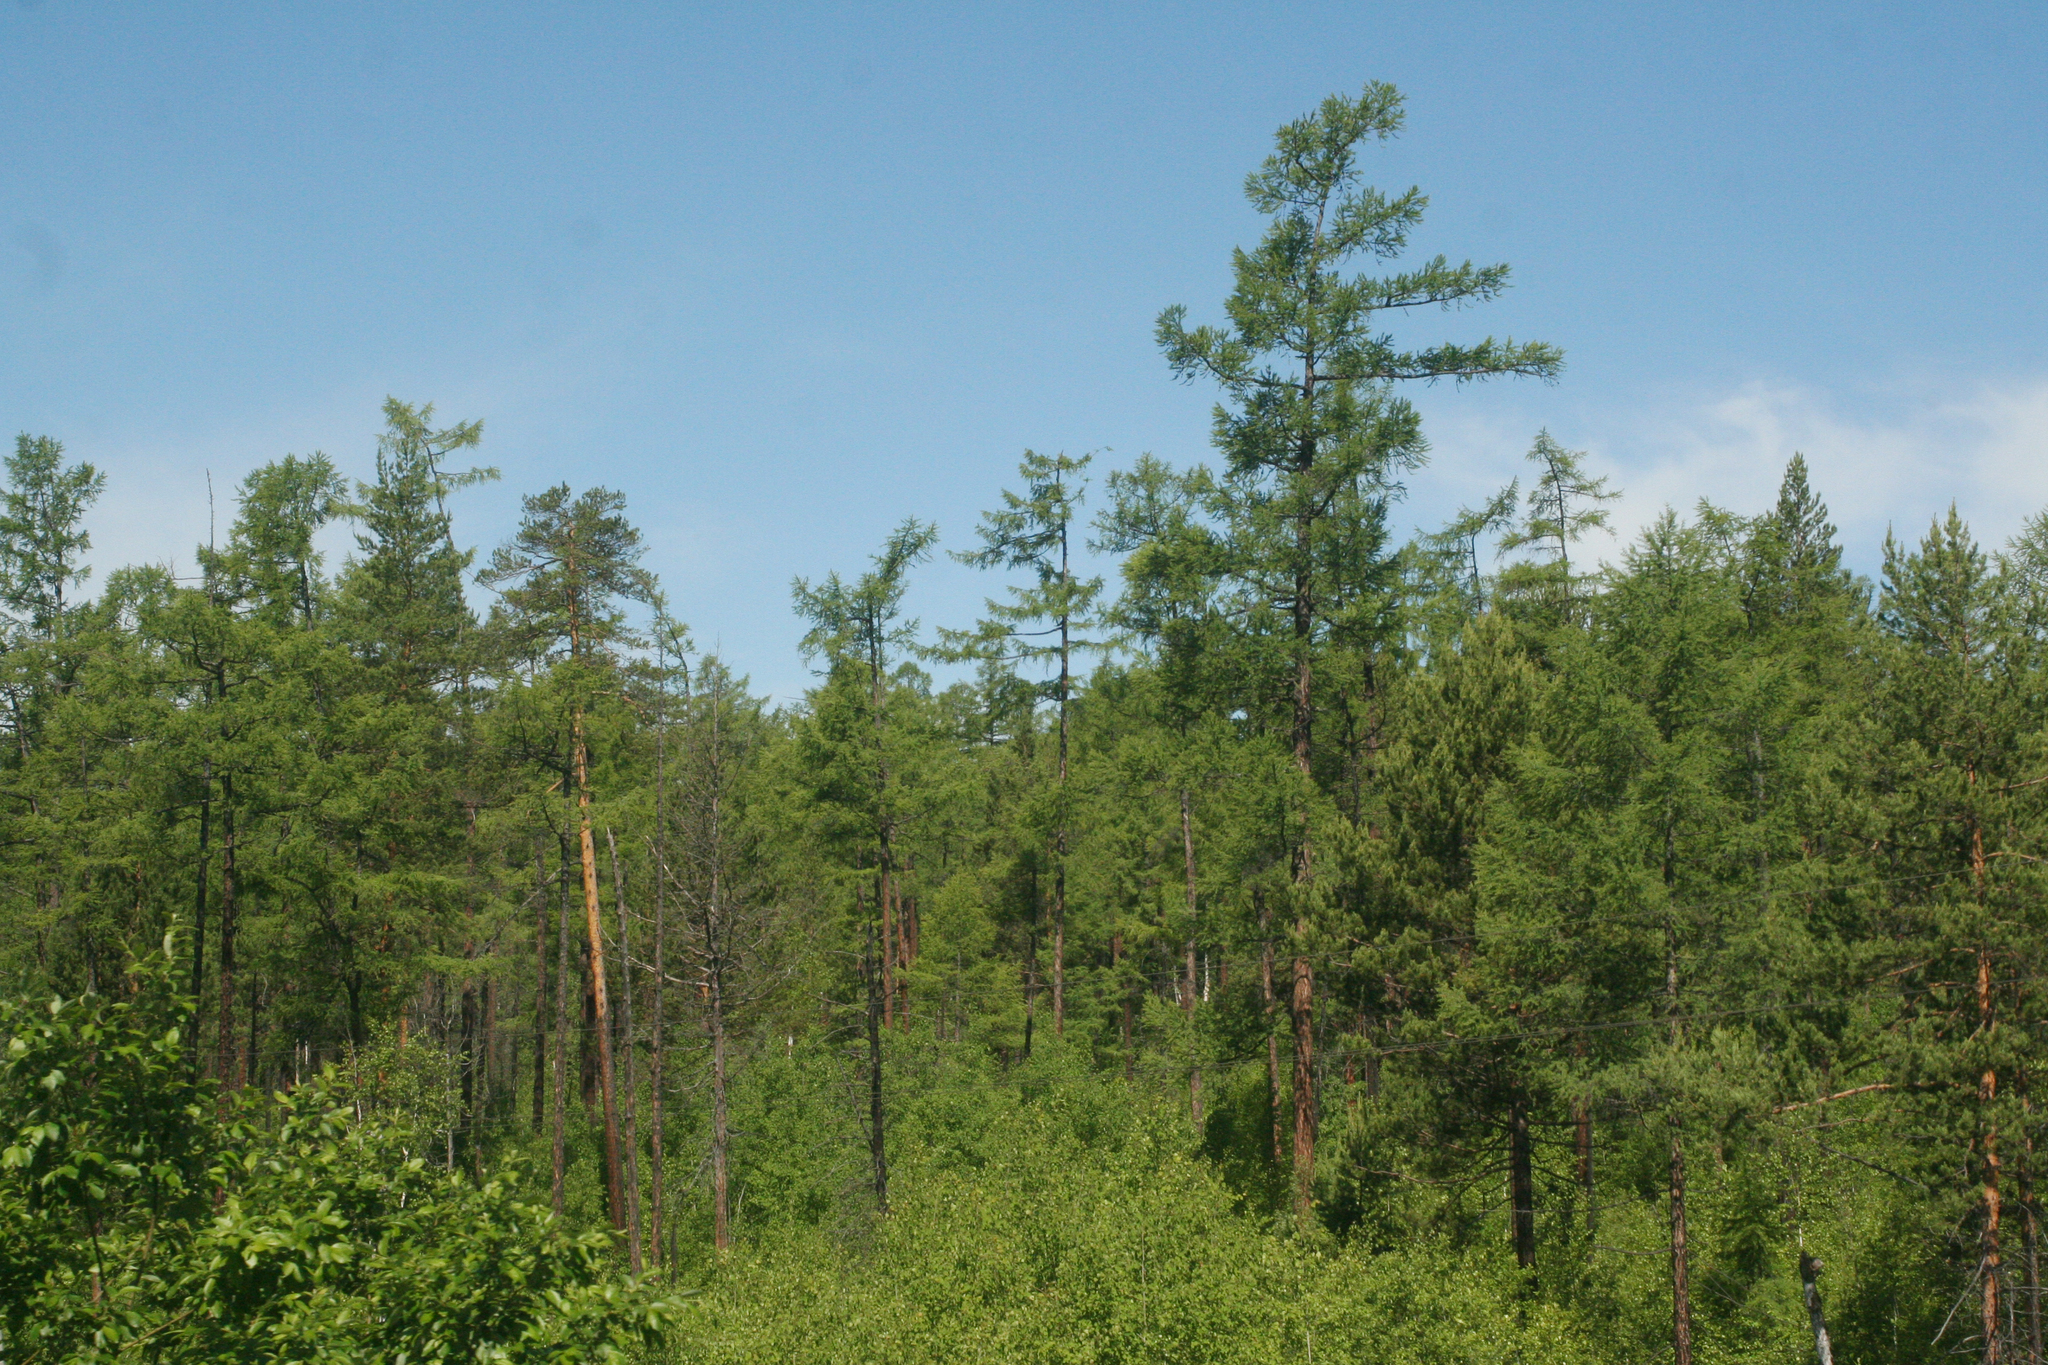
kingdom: Plantae
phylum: Tracheophyta
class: Pinopsida
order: Pinales
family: Pinaceae
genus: Larix
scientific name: Larix sibirica
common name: Siberian larch
